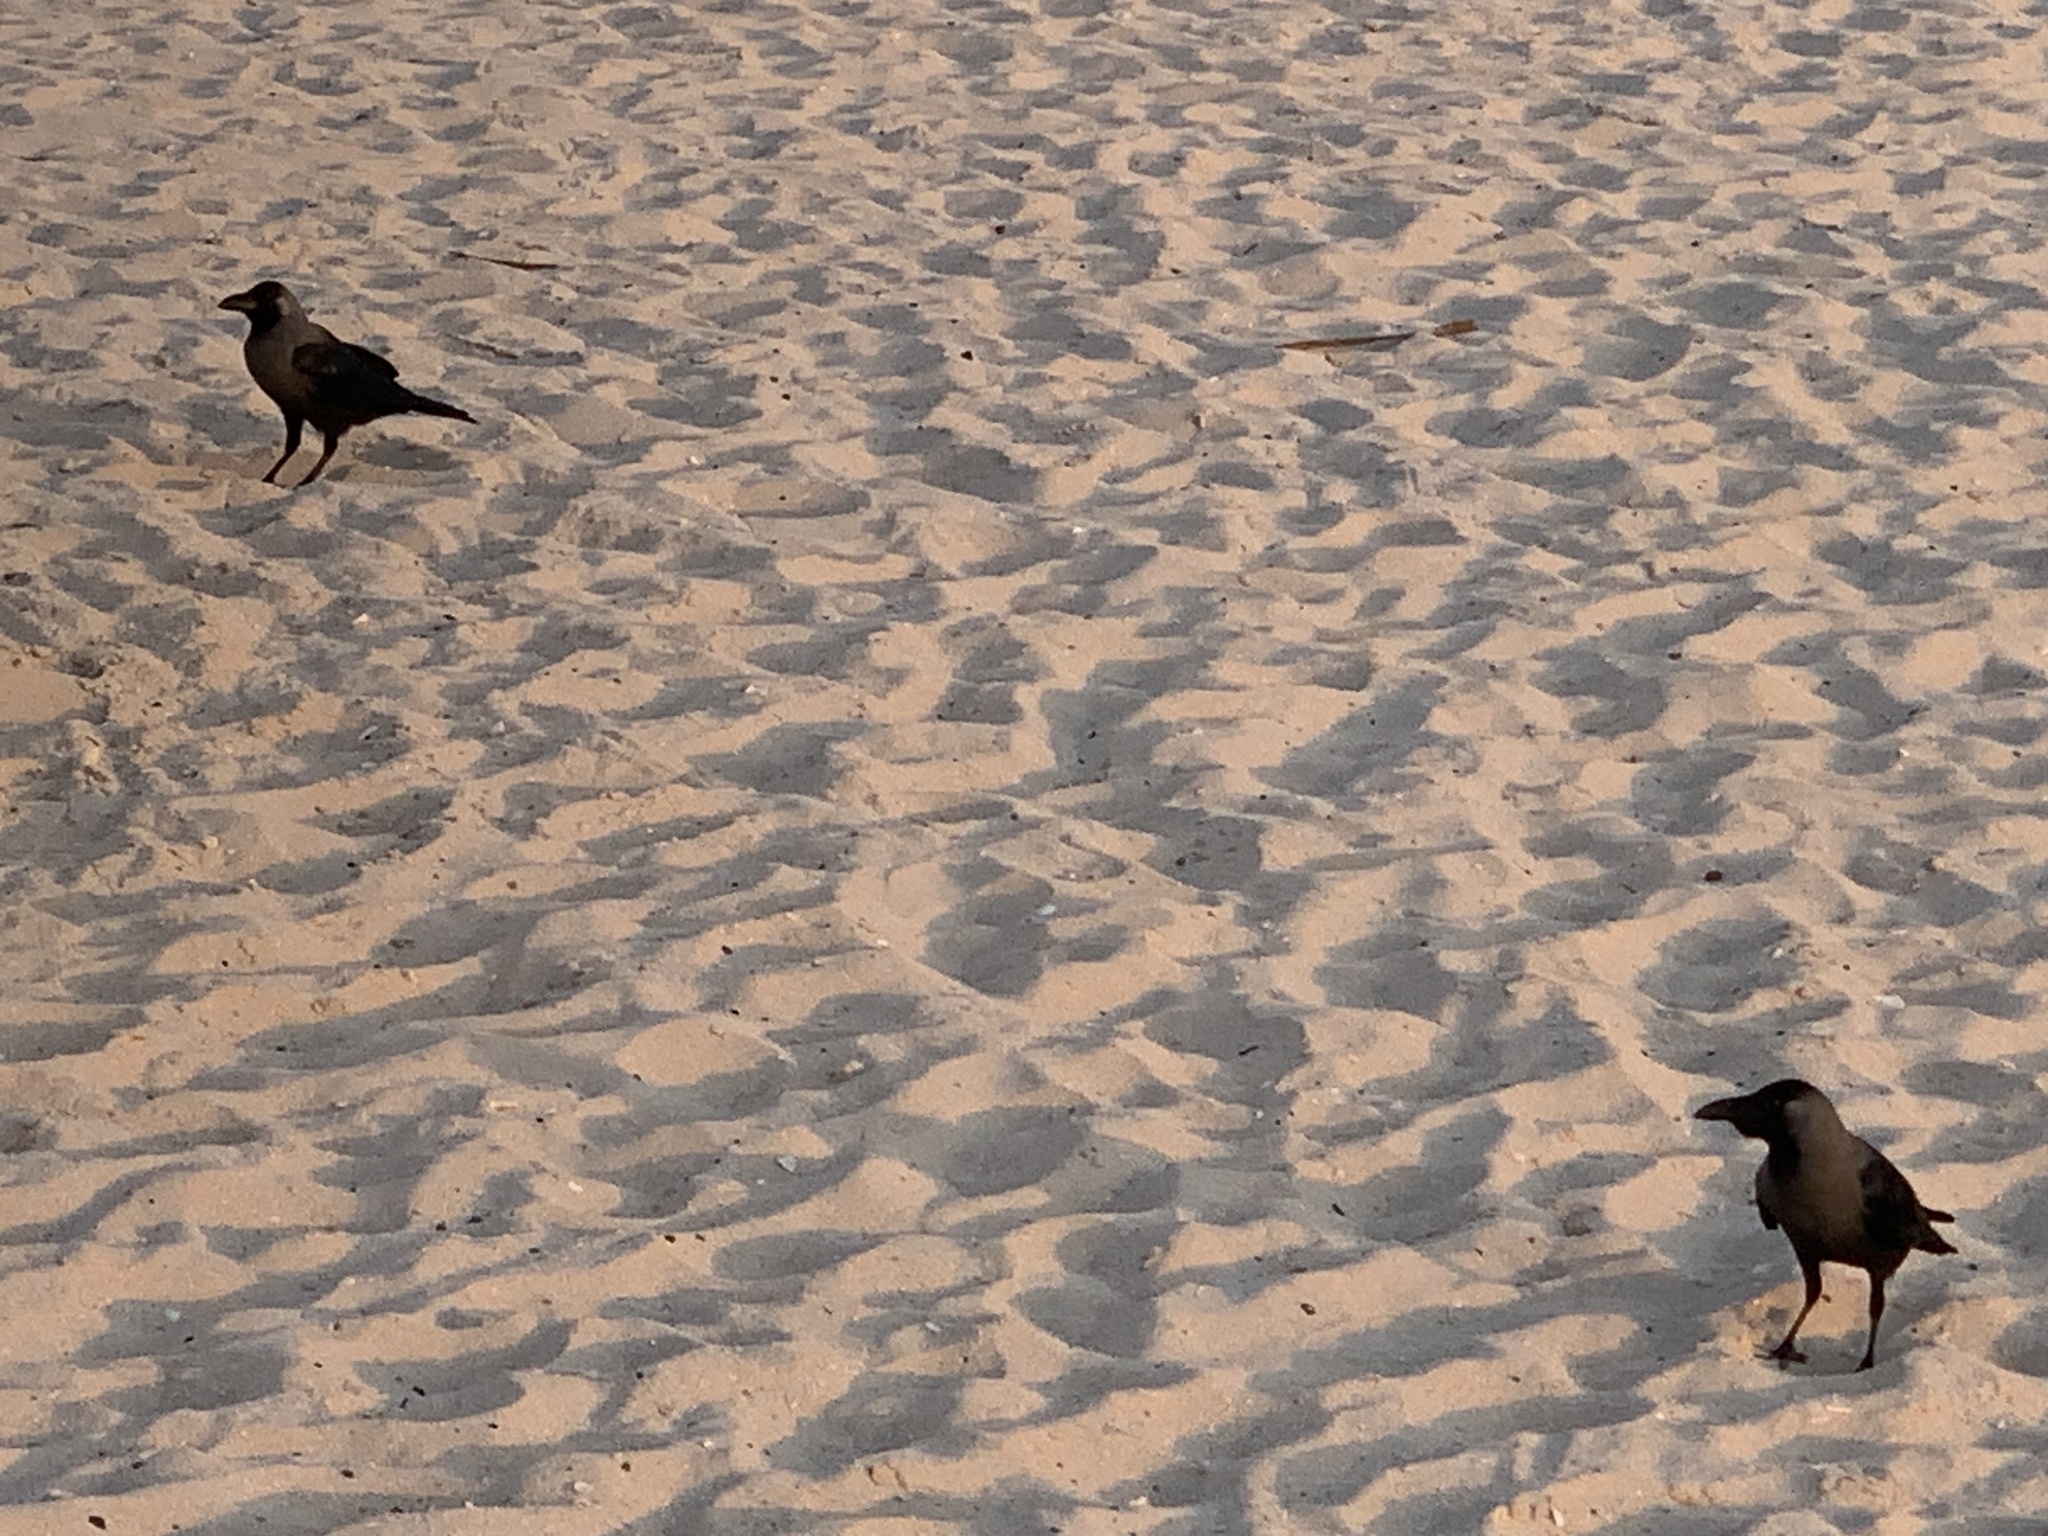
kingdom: Animalia
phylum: Chordata
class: Aves
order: Passeriformes
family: Corvidae
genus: Corvus
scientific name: Corvus splendens
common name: House crow
